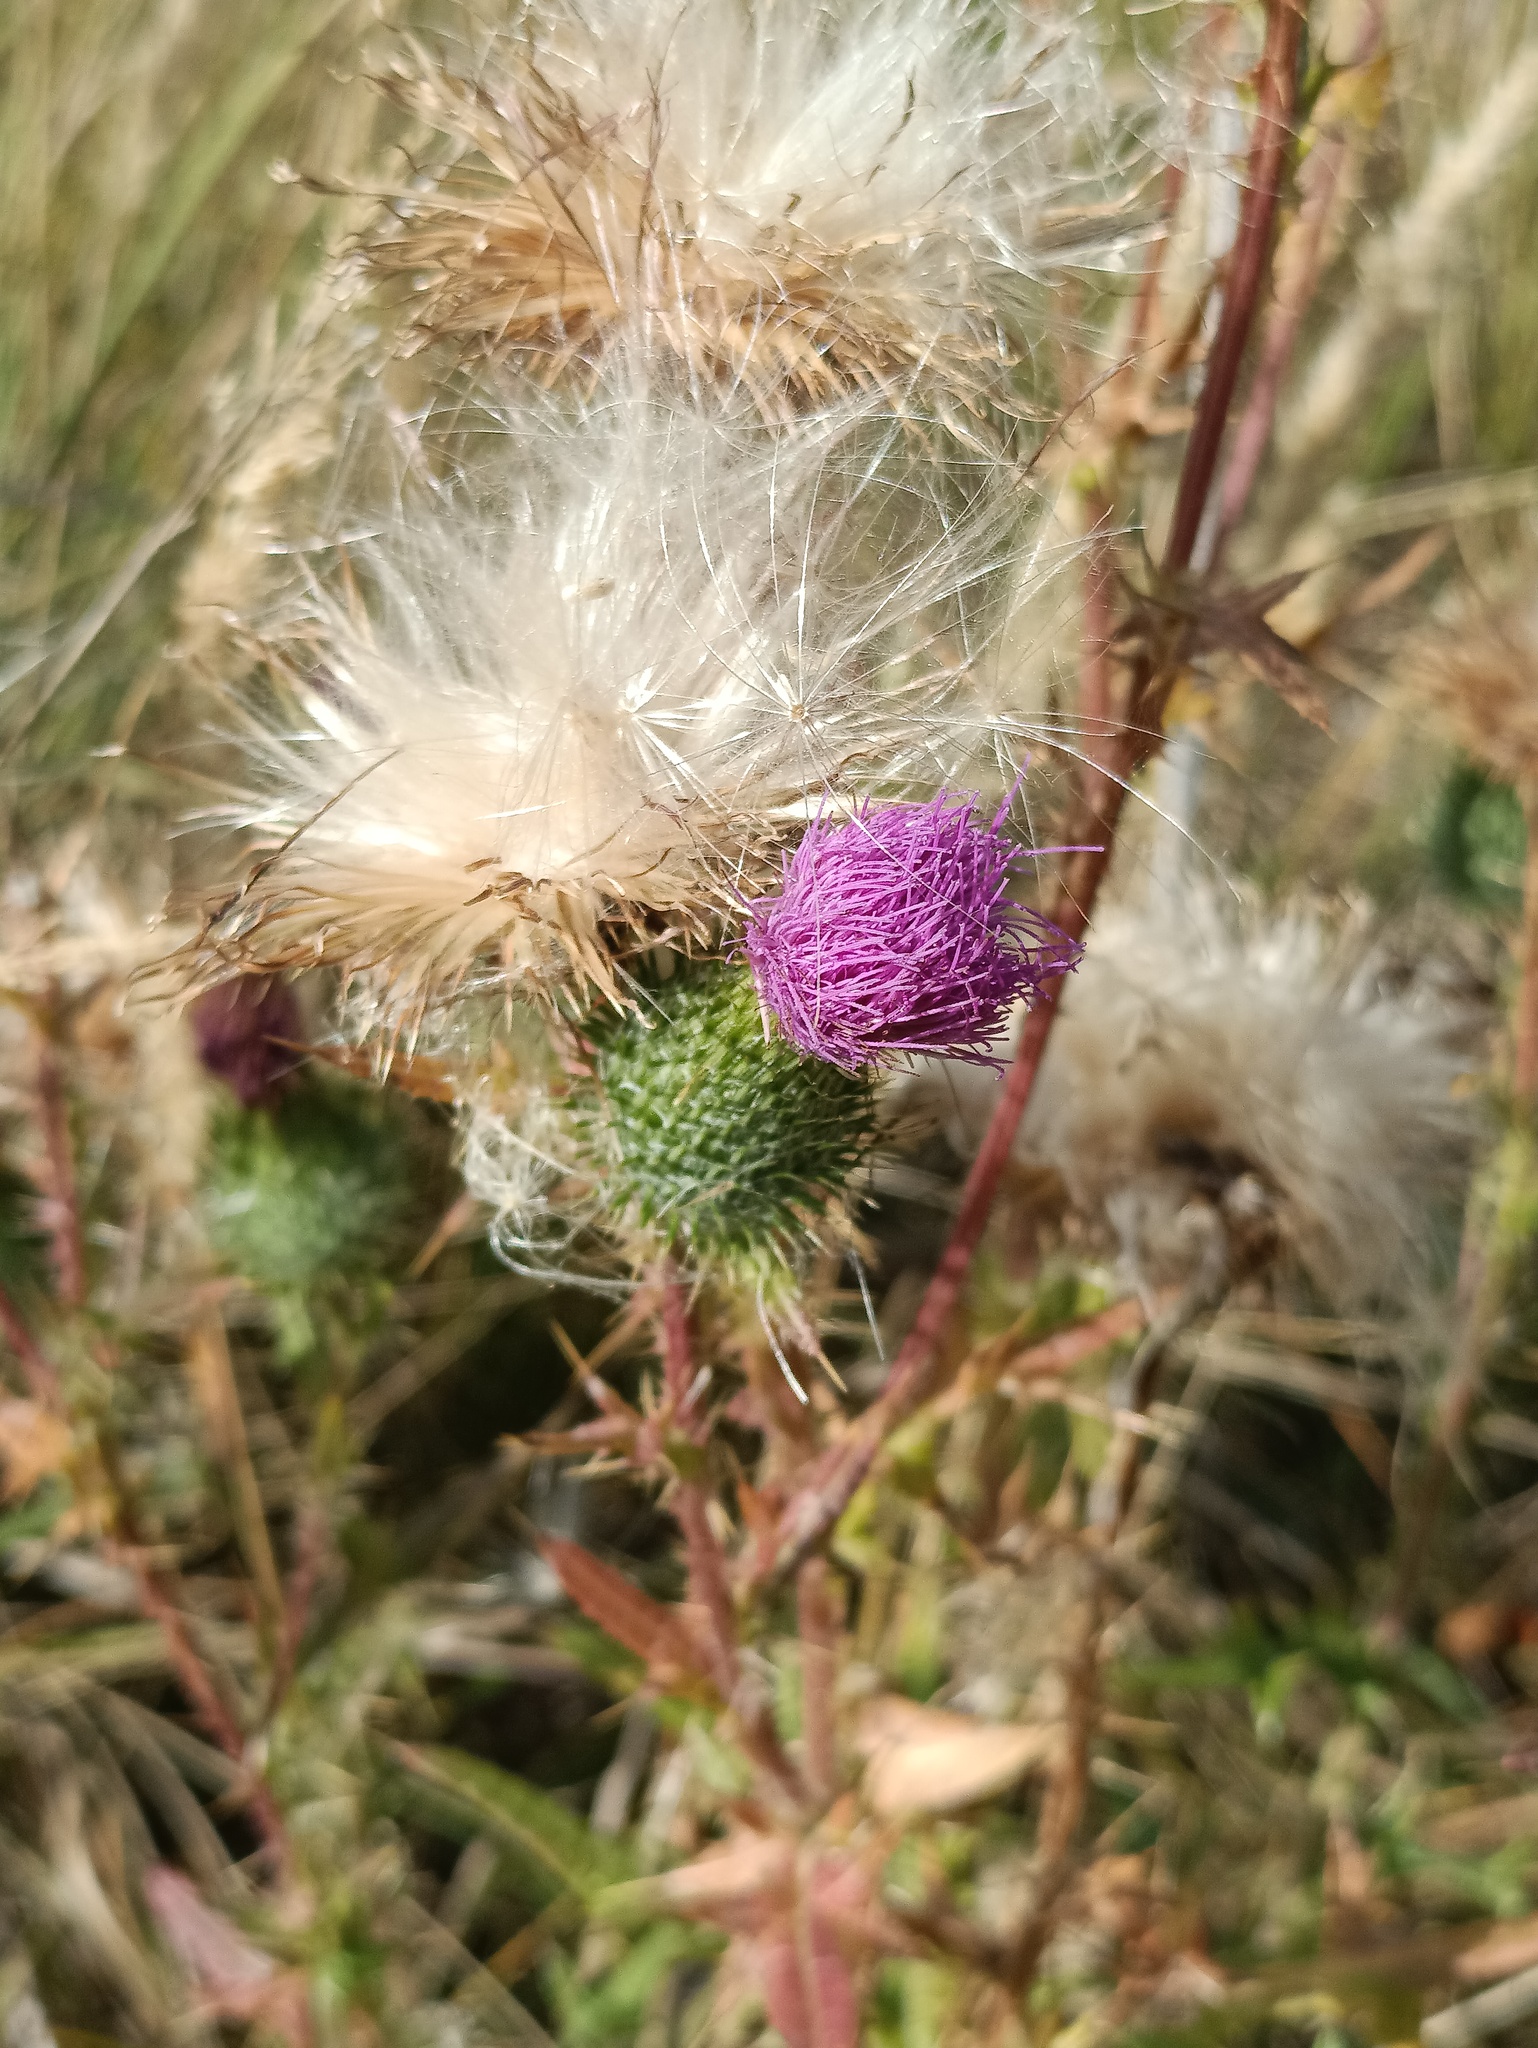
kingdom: Plantae
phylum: Tracheophyta
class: Magnoliopsida
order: Asterales
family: Asteraceae
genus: Cirsium
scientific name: Cirsium vulgare
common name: Bull thistle
